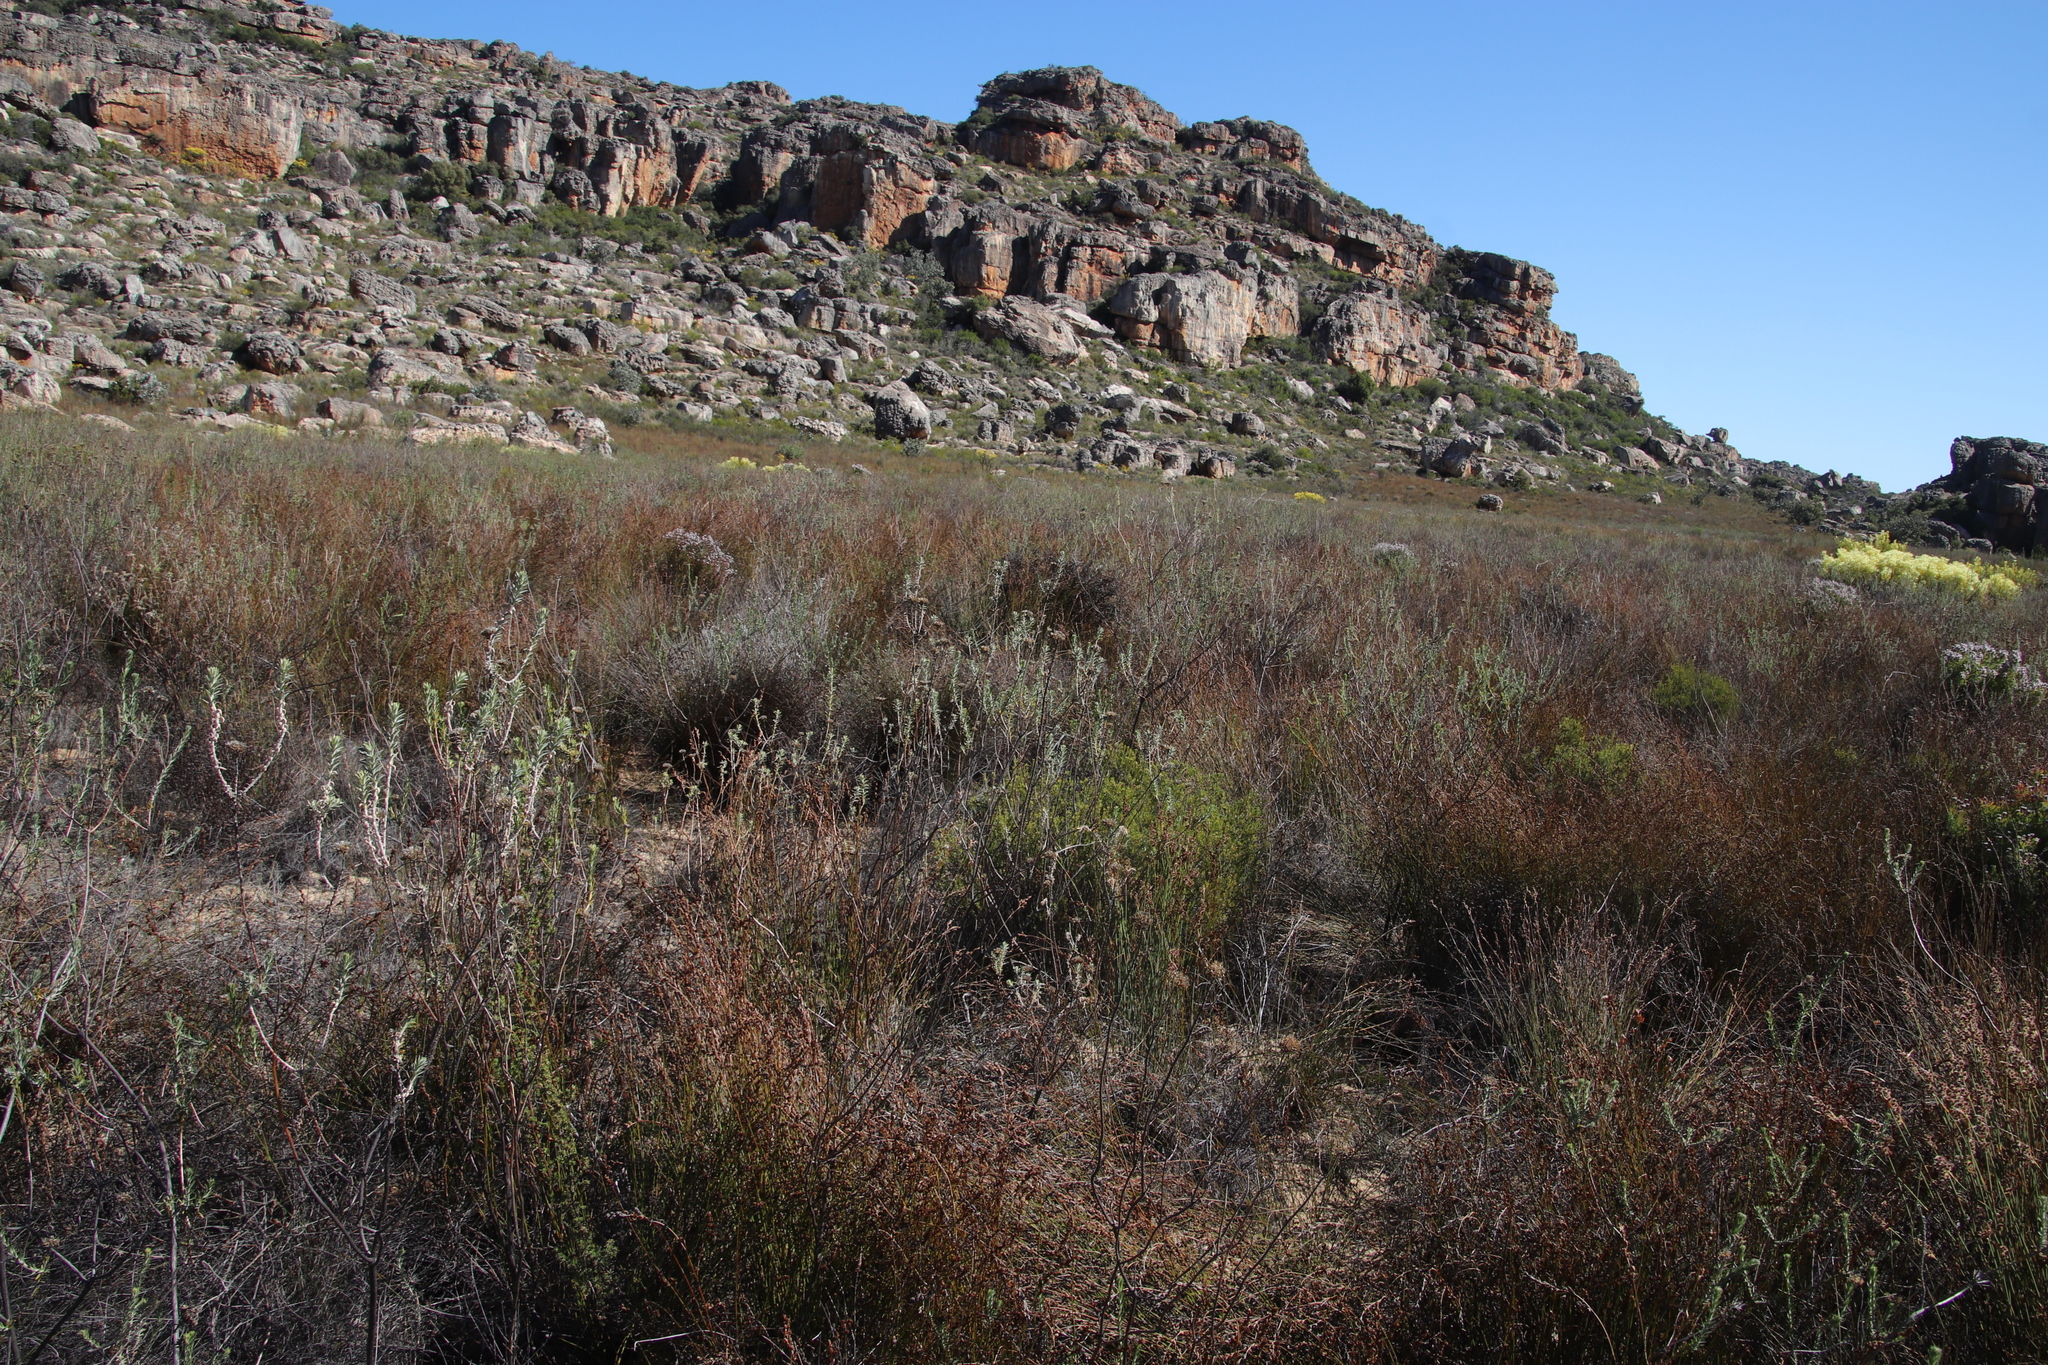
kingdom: Plantae
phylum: Tracheophyta
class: Magnoliopsida
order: Asterales
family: Asteraceae
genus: Athanasia
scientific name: Athanasia microphylla
